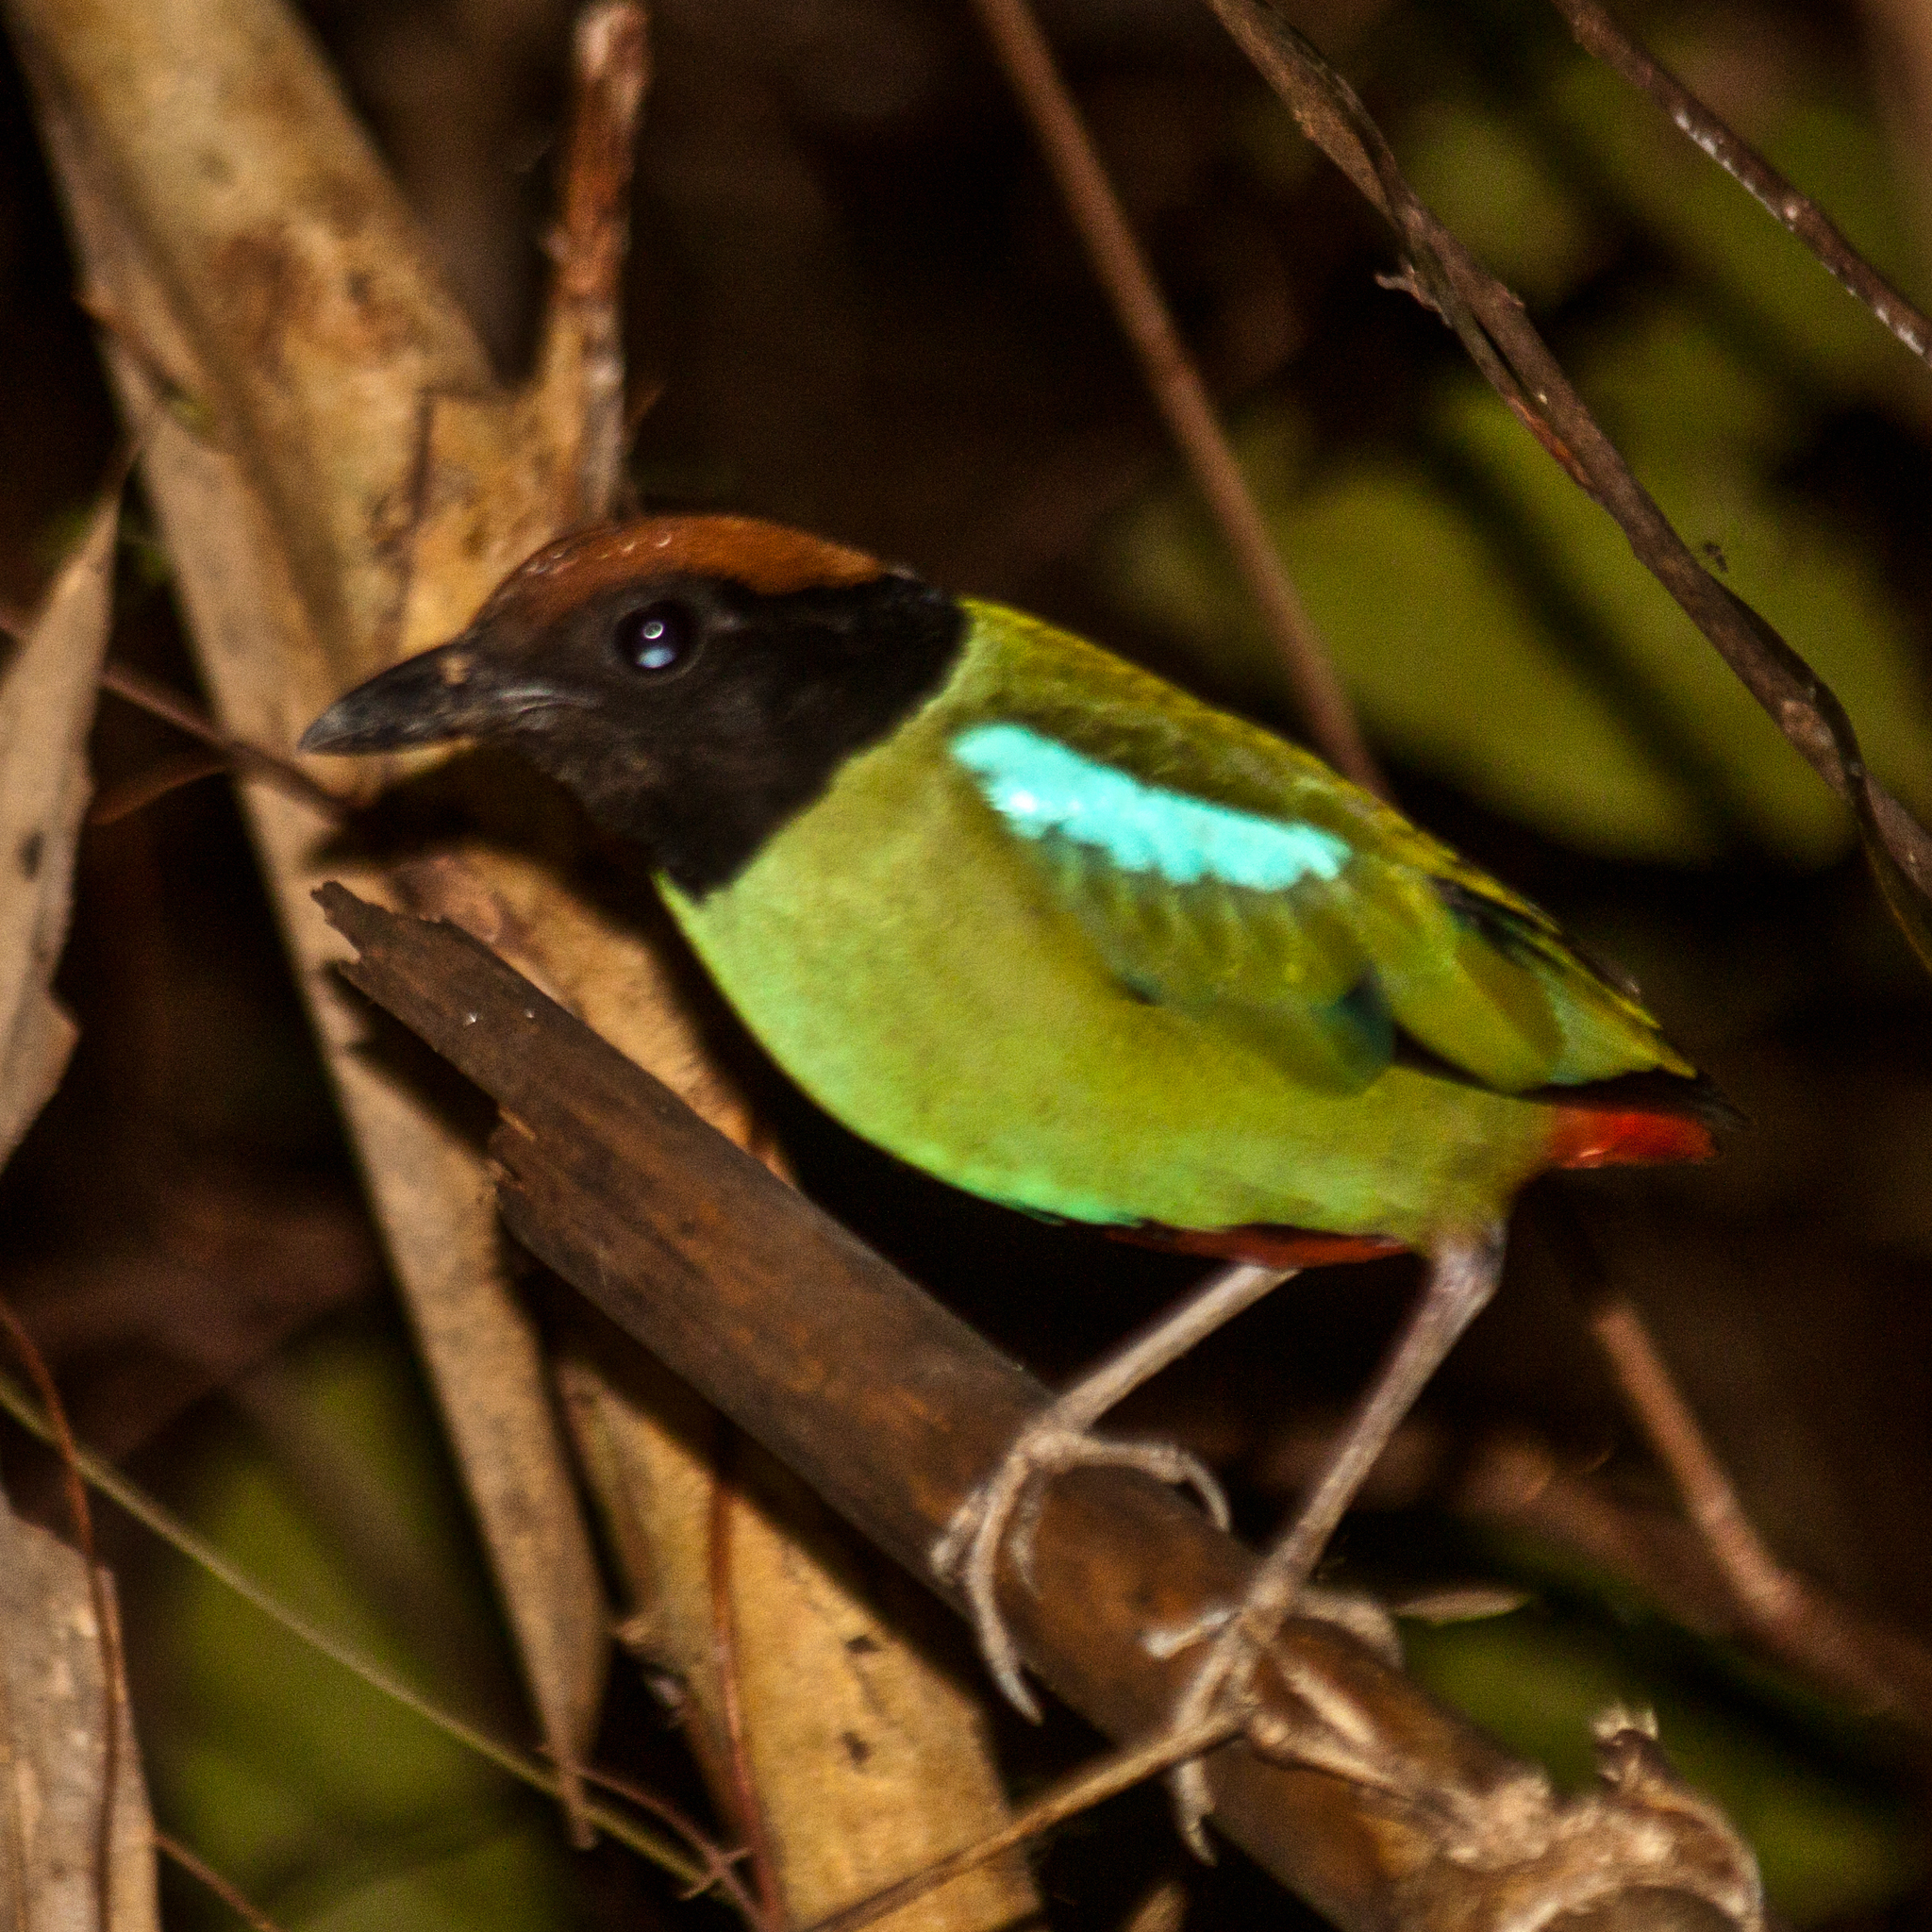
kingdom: Animalia
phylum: Chordata
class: Aves
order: Passeriformes
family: Pittidae
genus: Pitta
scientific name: Pitta sordida
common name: Hooded pitta
